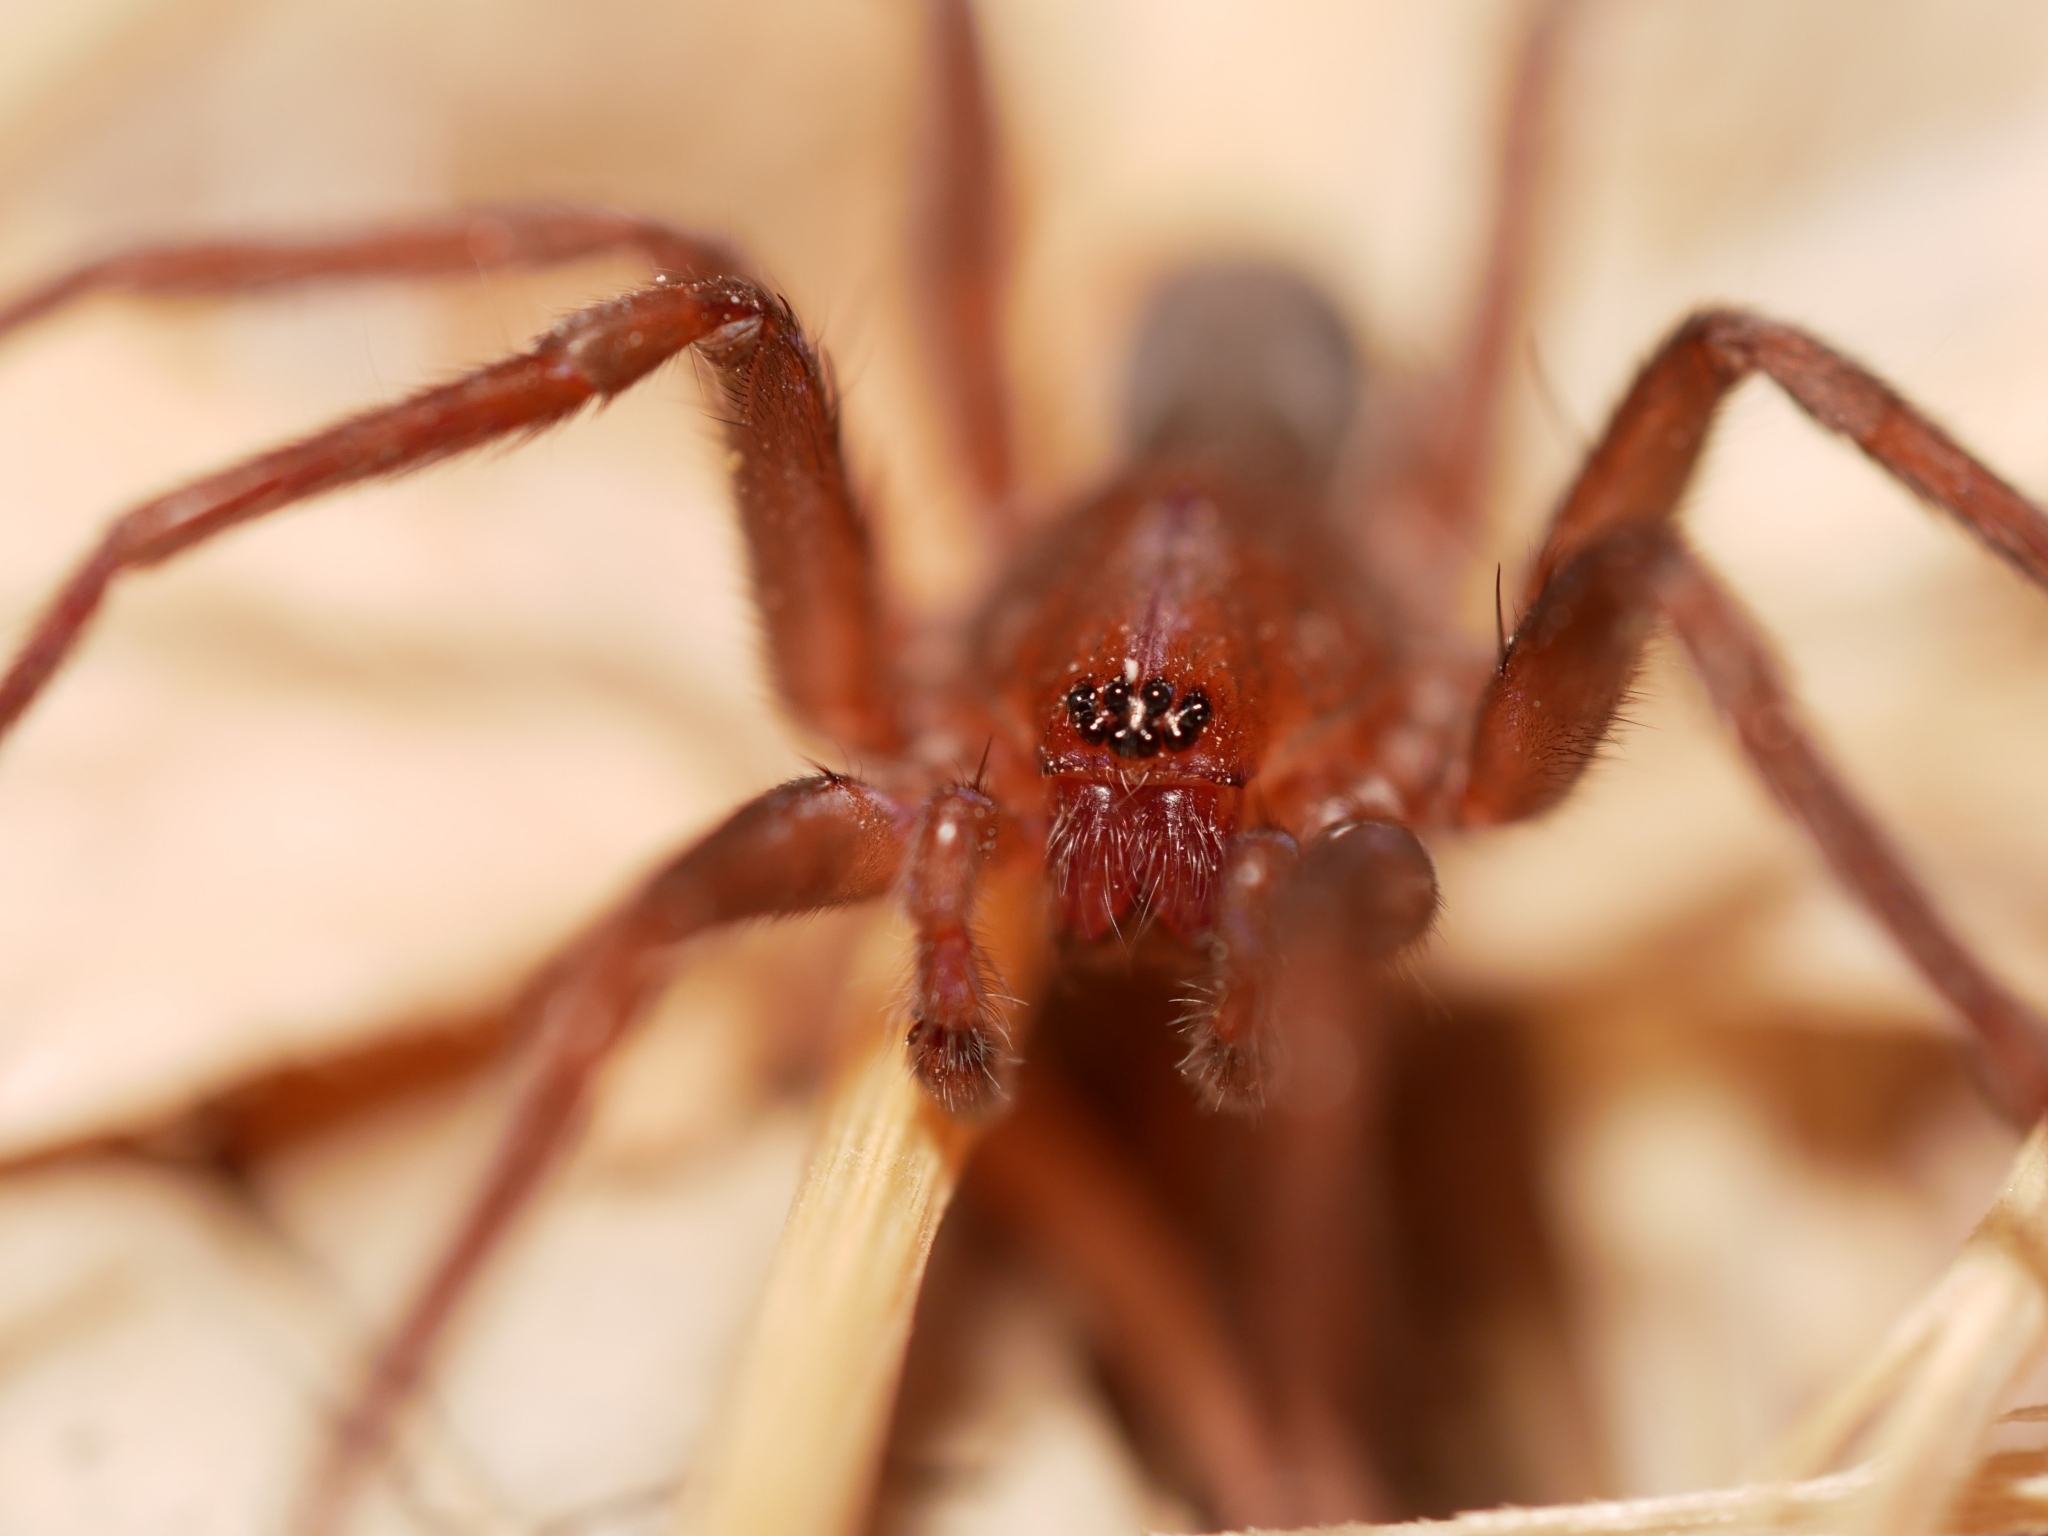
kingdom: Animalia
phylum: Arthropoda
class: Arachnida
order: Araneae
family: Zoropsidae
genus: Socalchemmis
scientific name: Socalchemmis miramar
